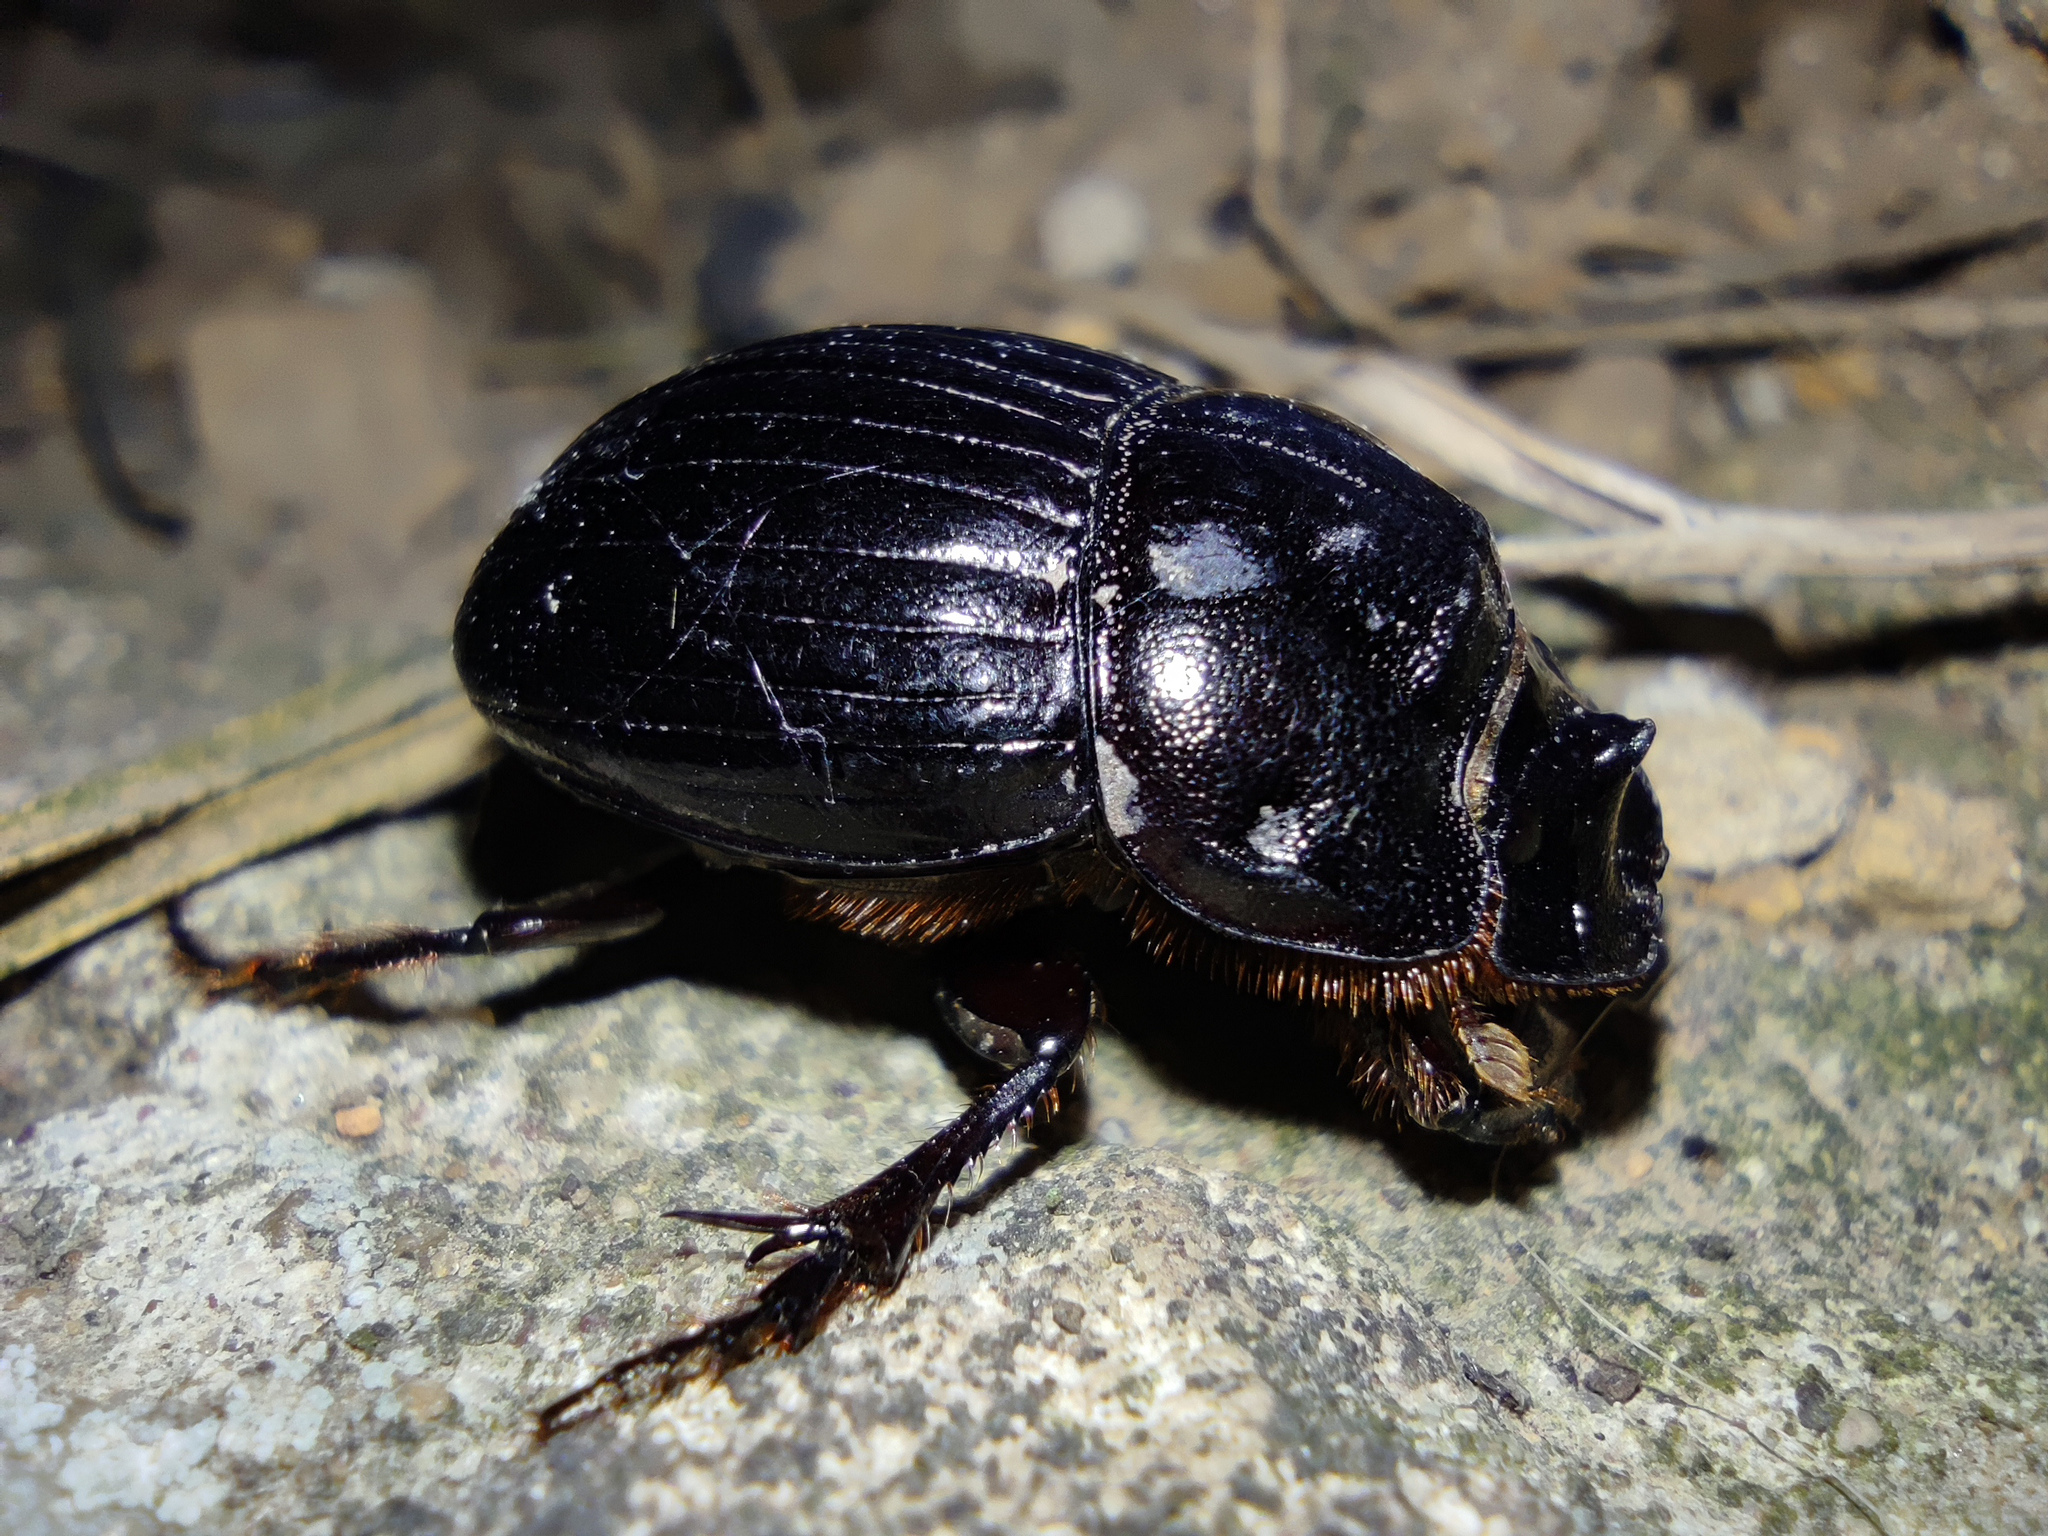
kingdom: Animalia
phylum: Arthropoda
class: Insecta
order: Coleoptera
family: Scarabaeidae
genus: Copris
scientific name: Copris lunaris
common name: Horned dung beetle
